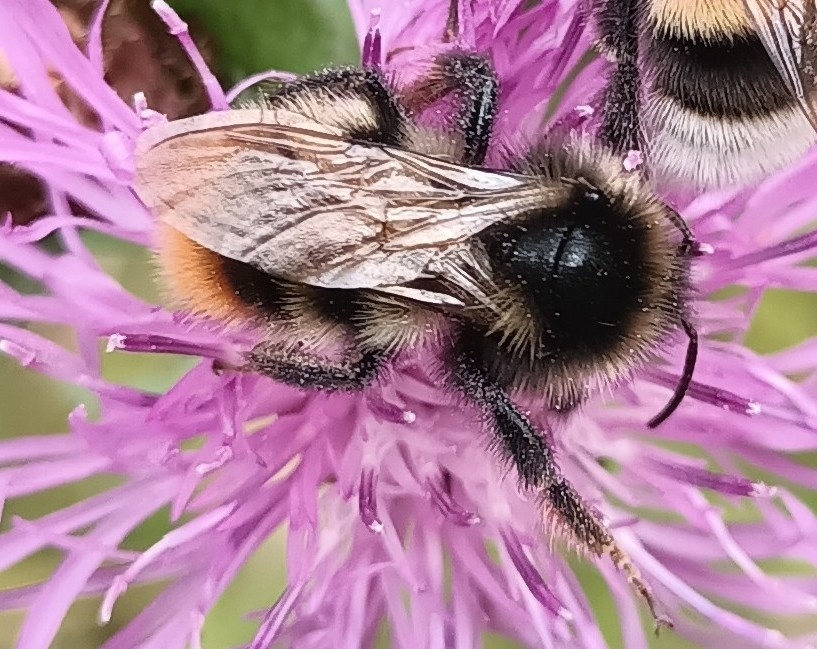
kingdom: Animalia
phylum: Arthropoda
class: Insecta
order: Hymenoptera
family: Apidae
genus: Bombus
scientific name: Bombus rupestris
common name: Hill cuckoo-bee
